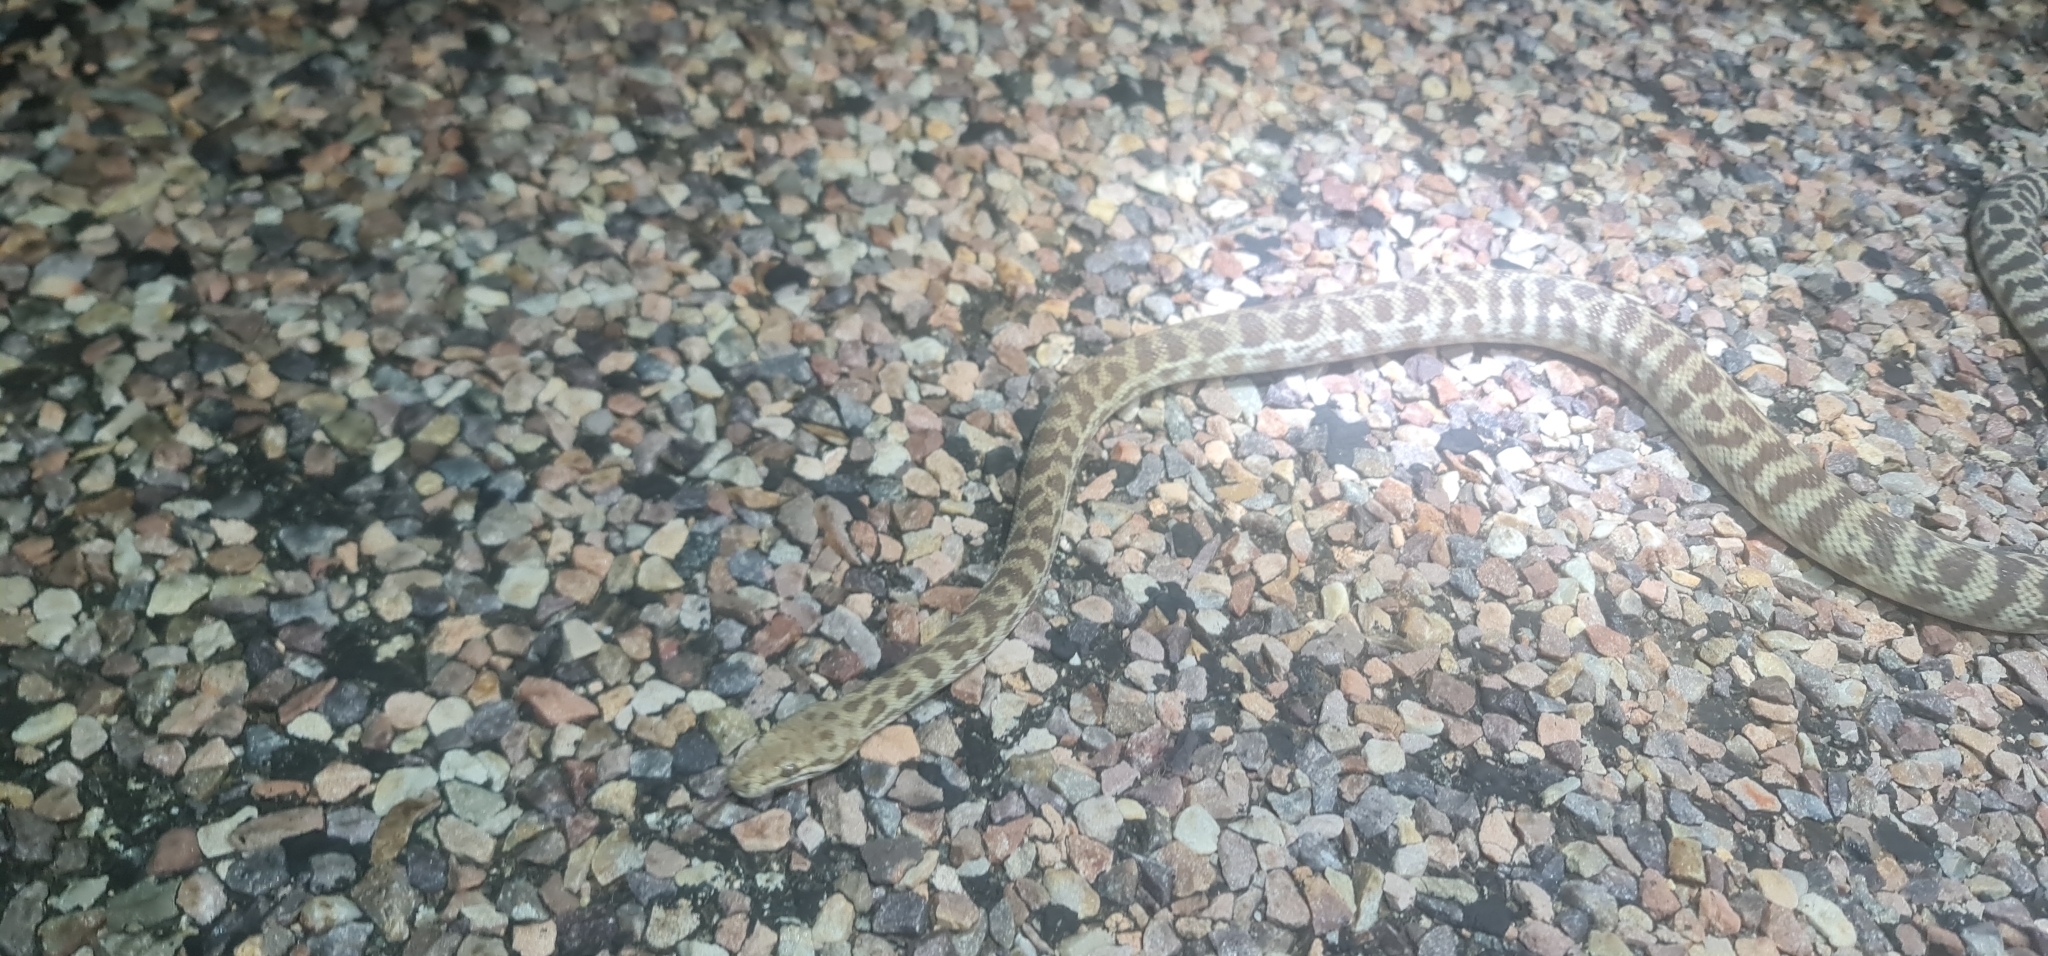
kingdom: Animalia
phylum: Chordata
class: Squamata
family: Pythonidae
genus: Antaresia
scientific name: Antaresia childreni
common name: Children's python
